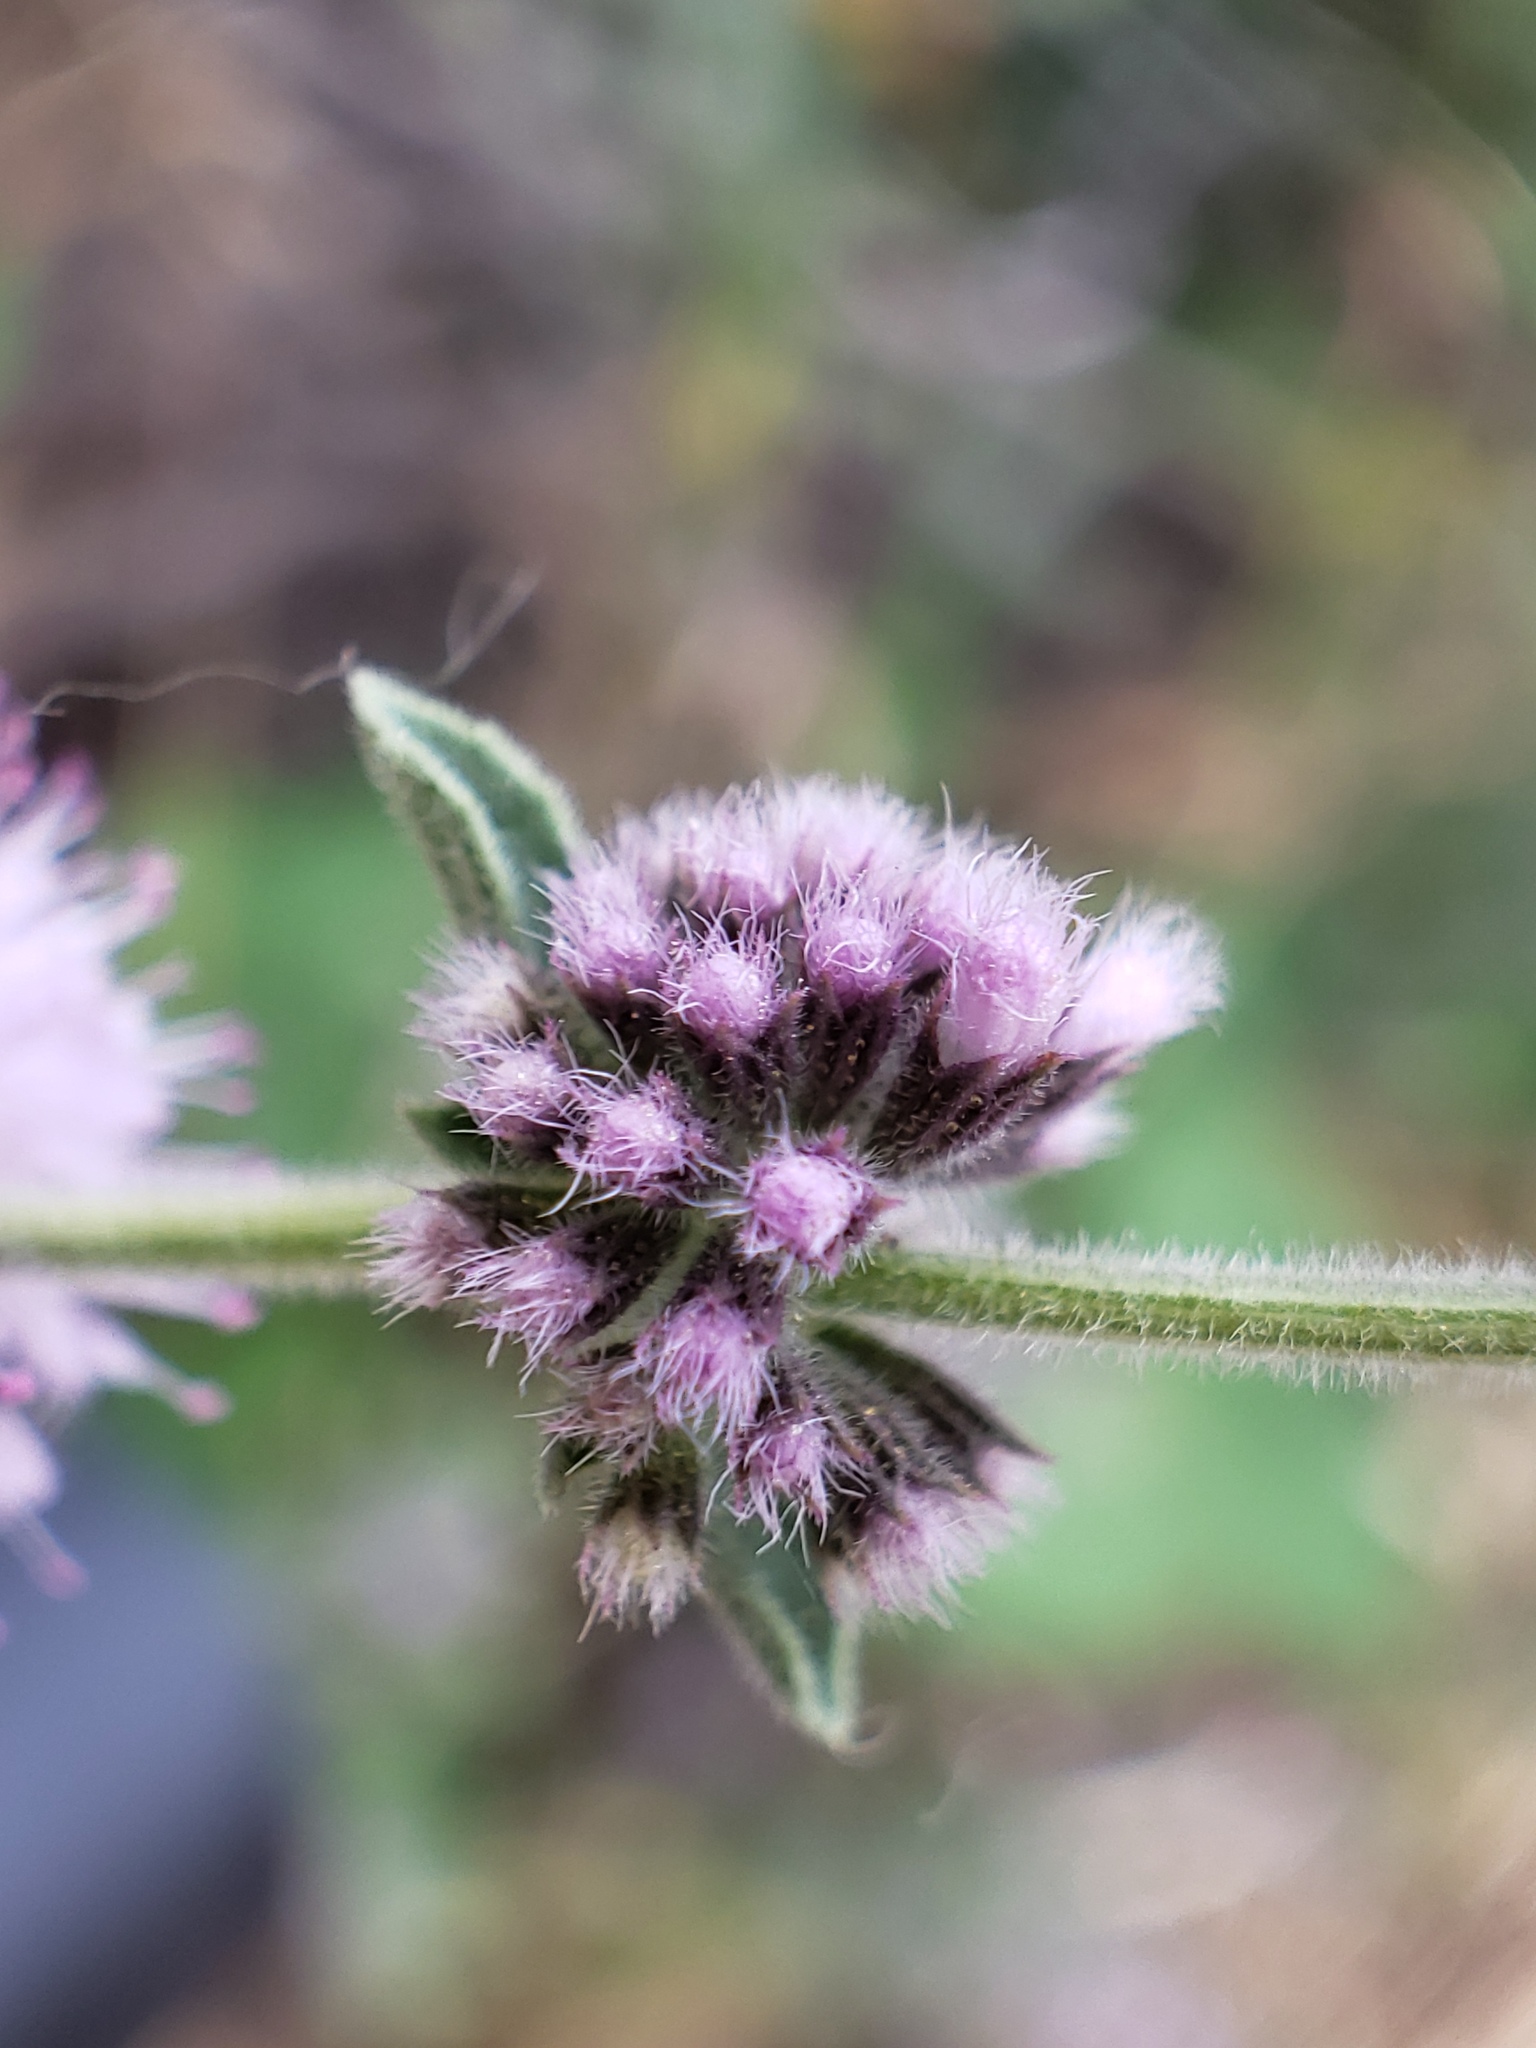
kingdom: Plantae
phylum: Tracheophyta
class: Magnoliopsida
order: Lamiales
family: Lamiaceae
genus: Mentha
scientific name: Mentha pulegium
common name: Pennyroyal
